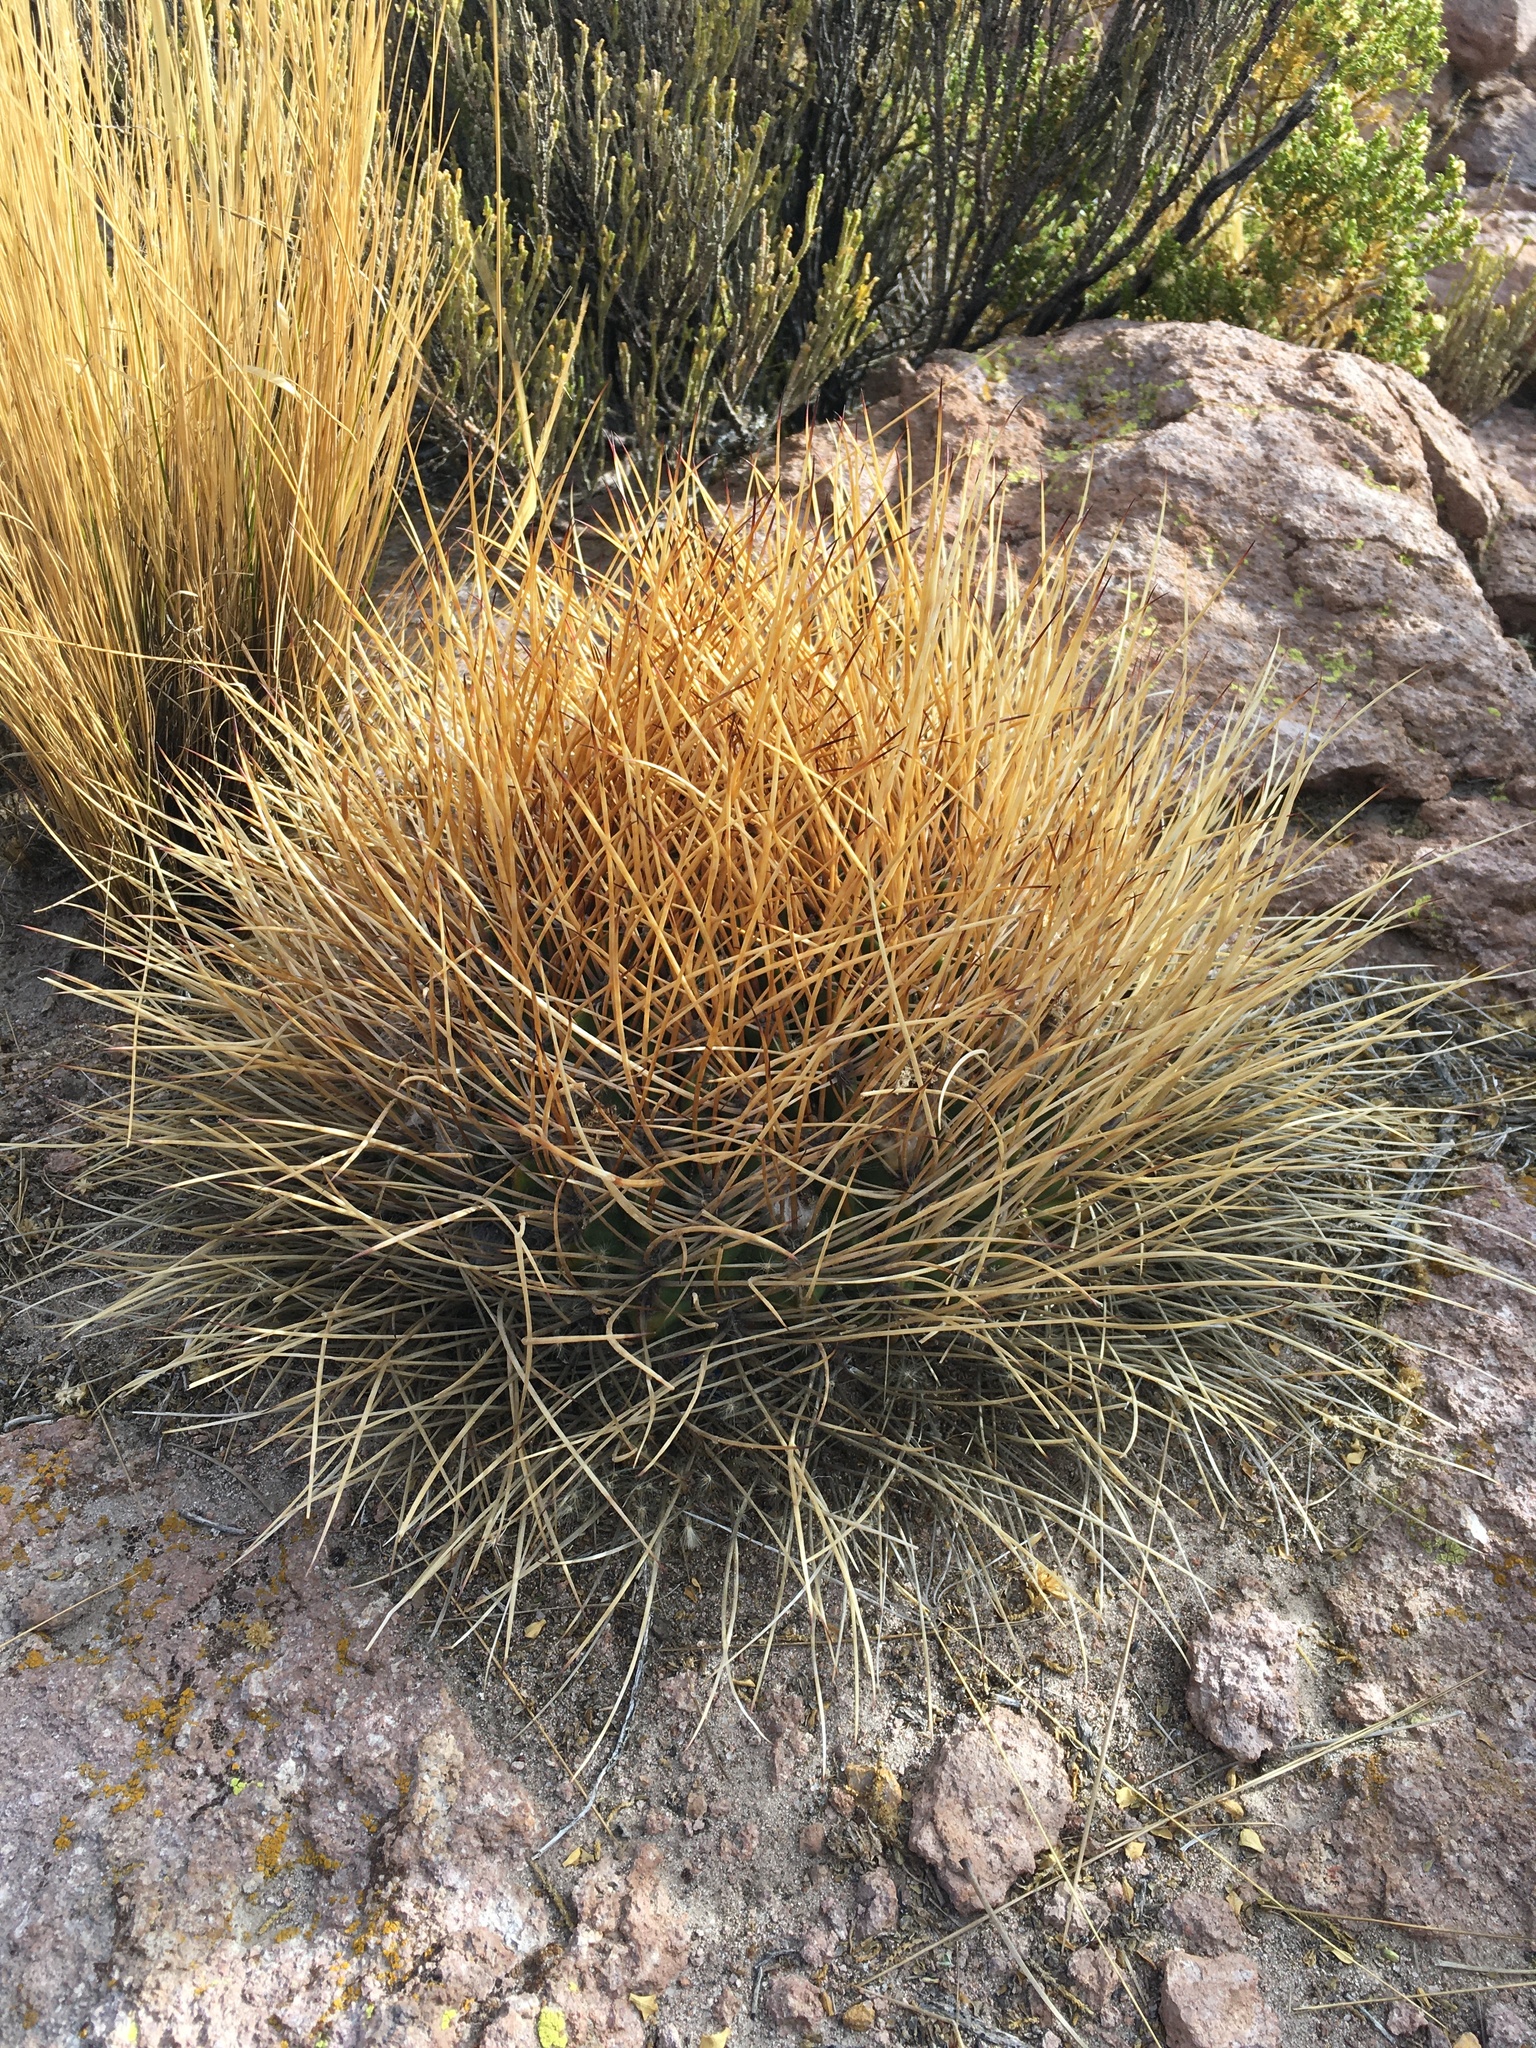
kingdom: Plantae
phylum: Tracheophyta
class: Magnoliopsida
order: Caryophyllales
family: Cactaceae
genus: Lobivia
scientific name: Lobivia ferox
